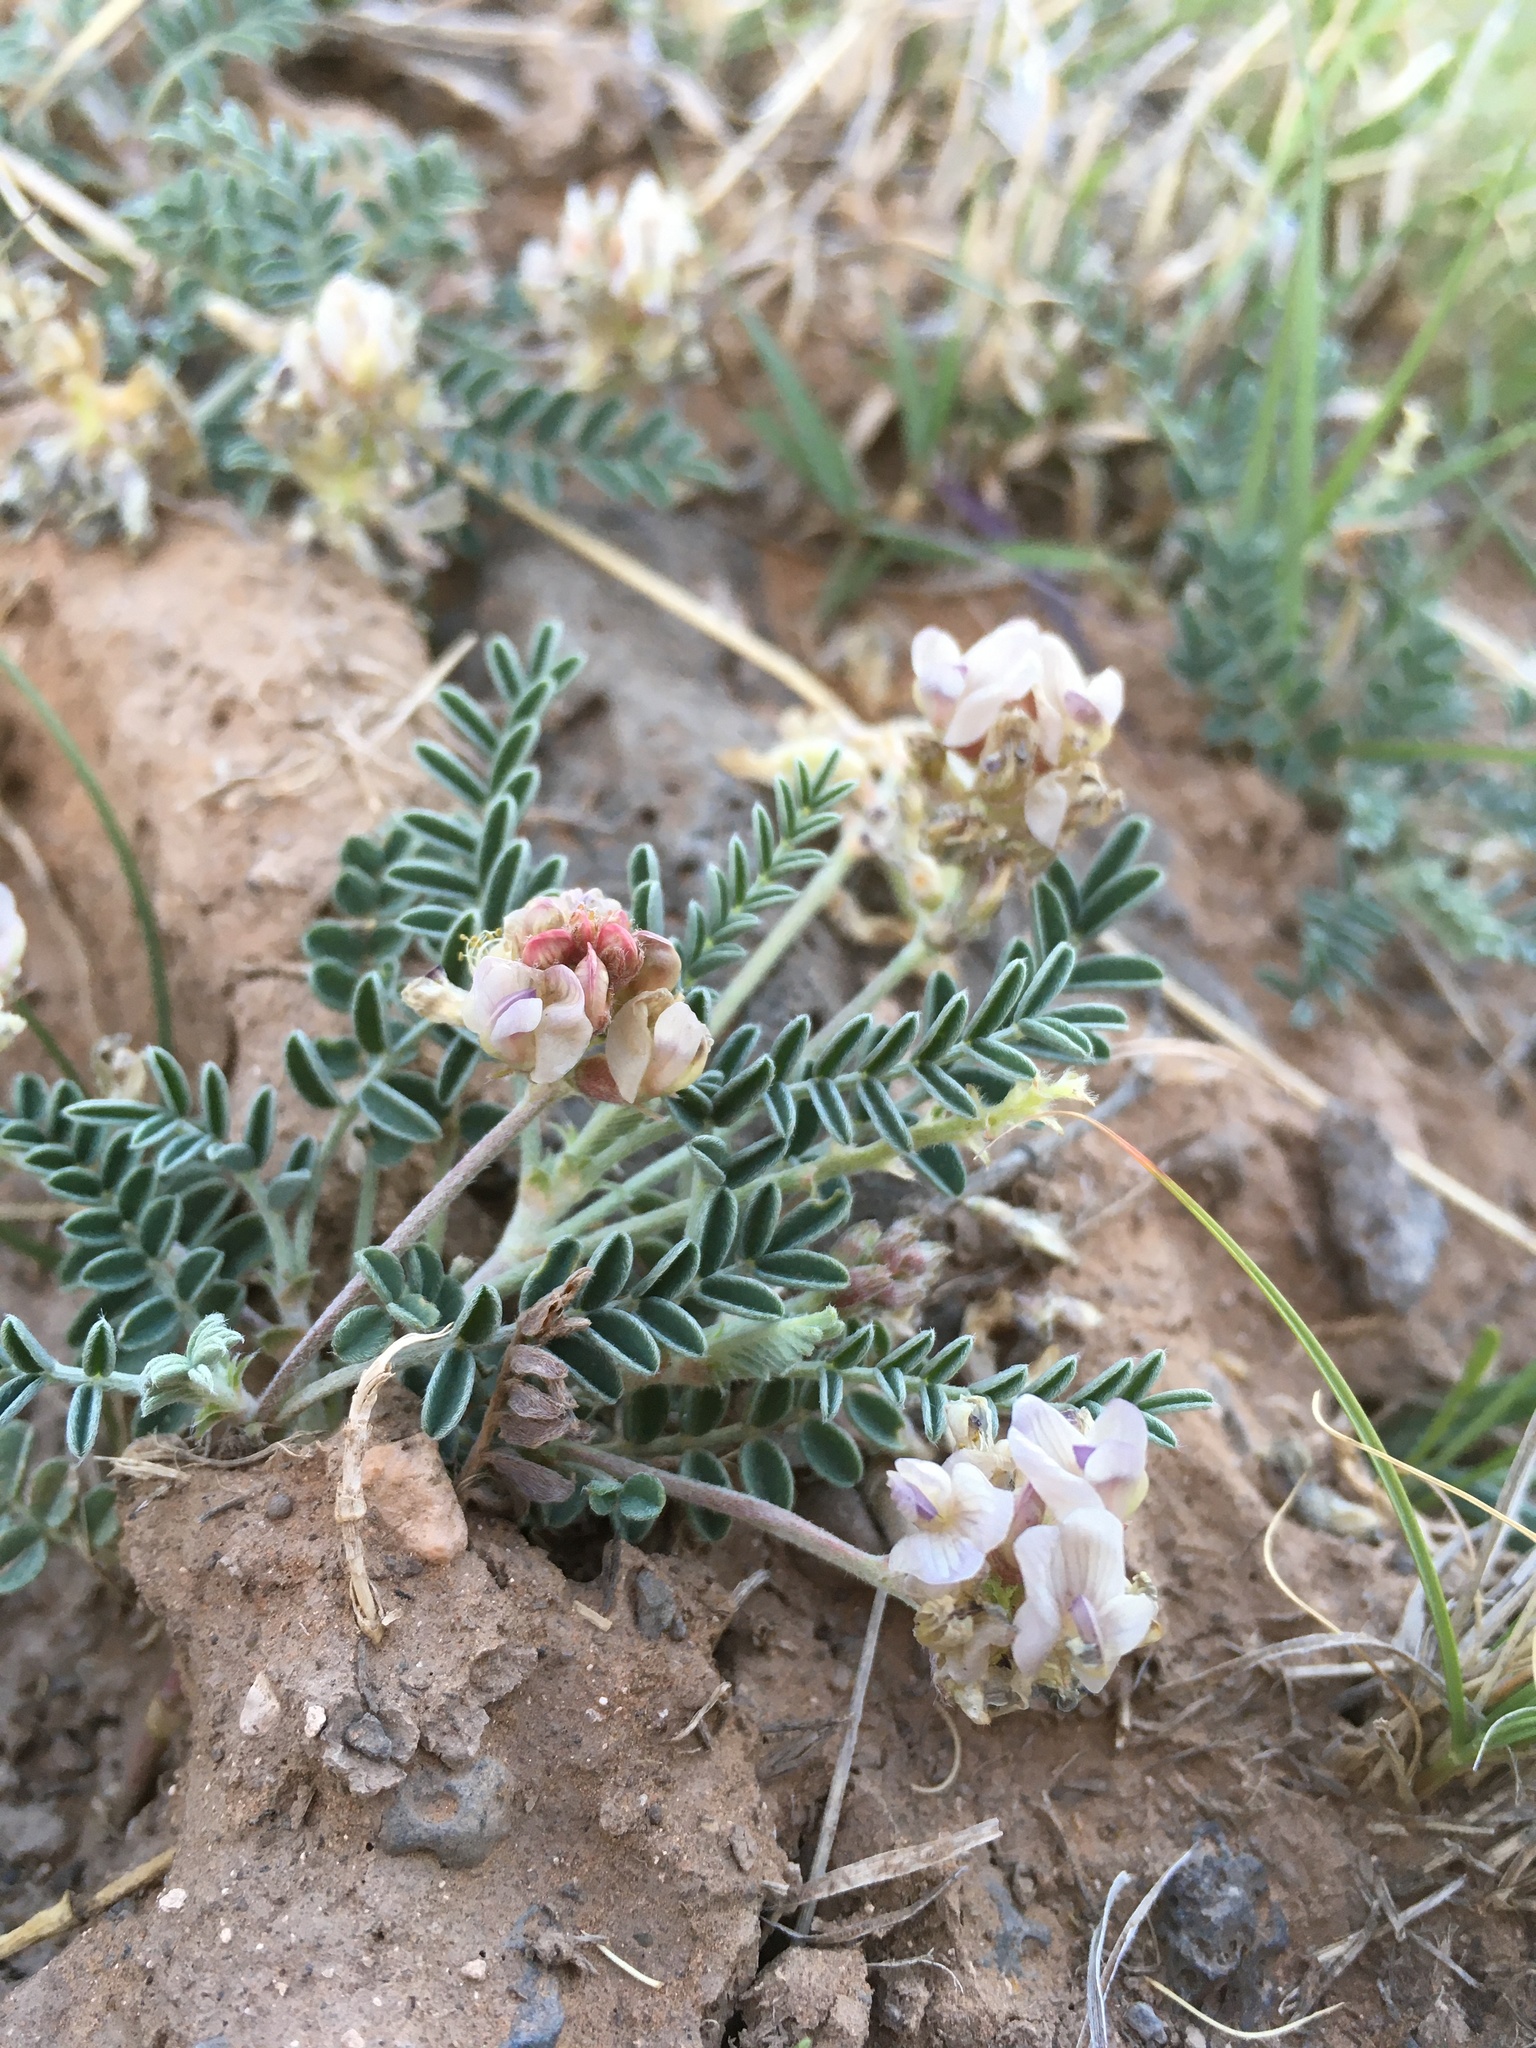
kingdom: Plantae
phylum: Tracheophyta
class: Magnoliopsida
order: Fabales
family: Fabaceae
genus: Astragalus
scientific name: Astragalus pictiformis
